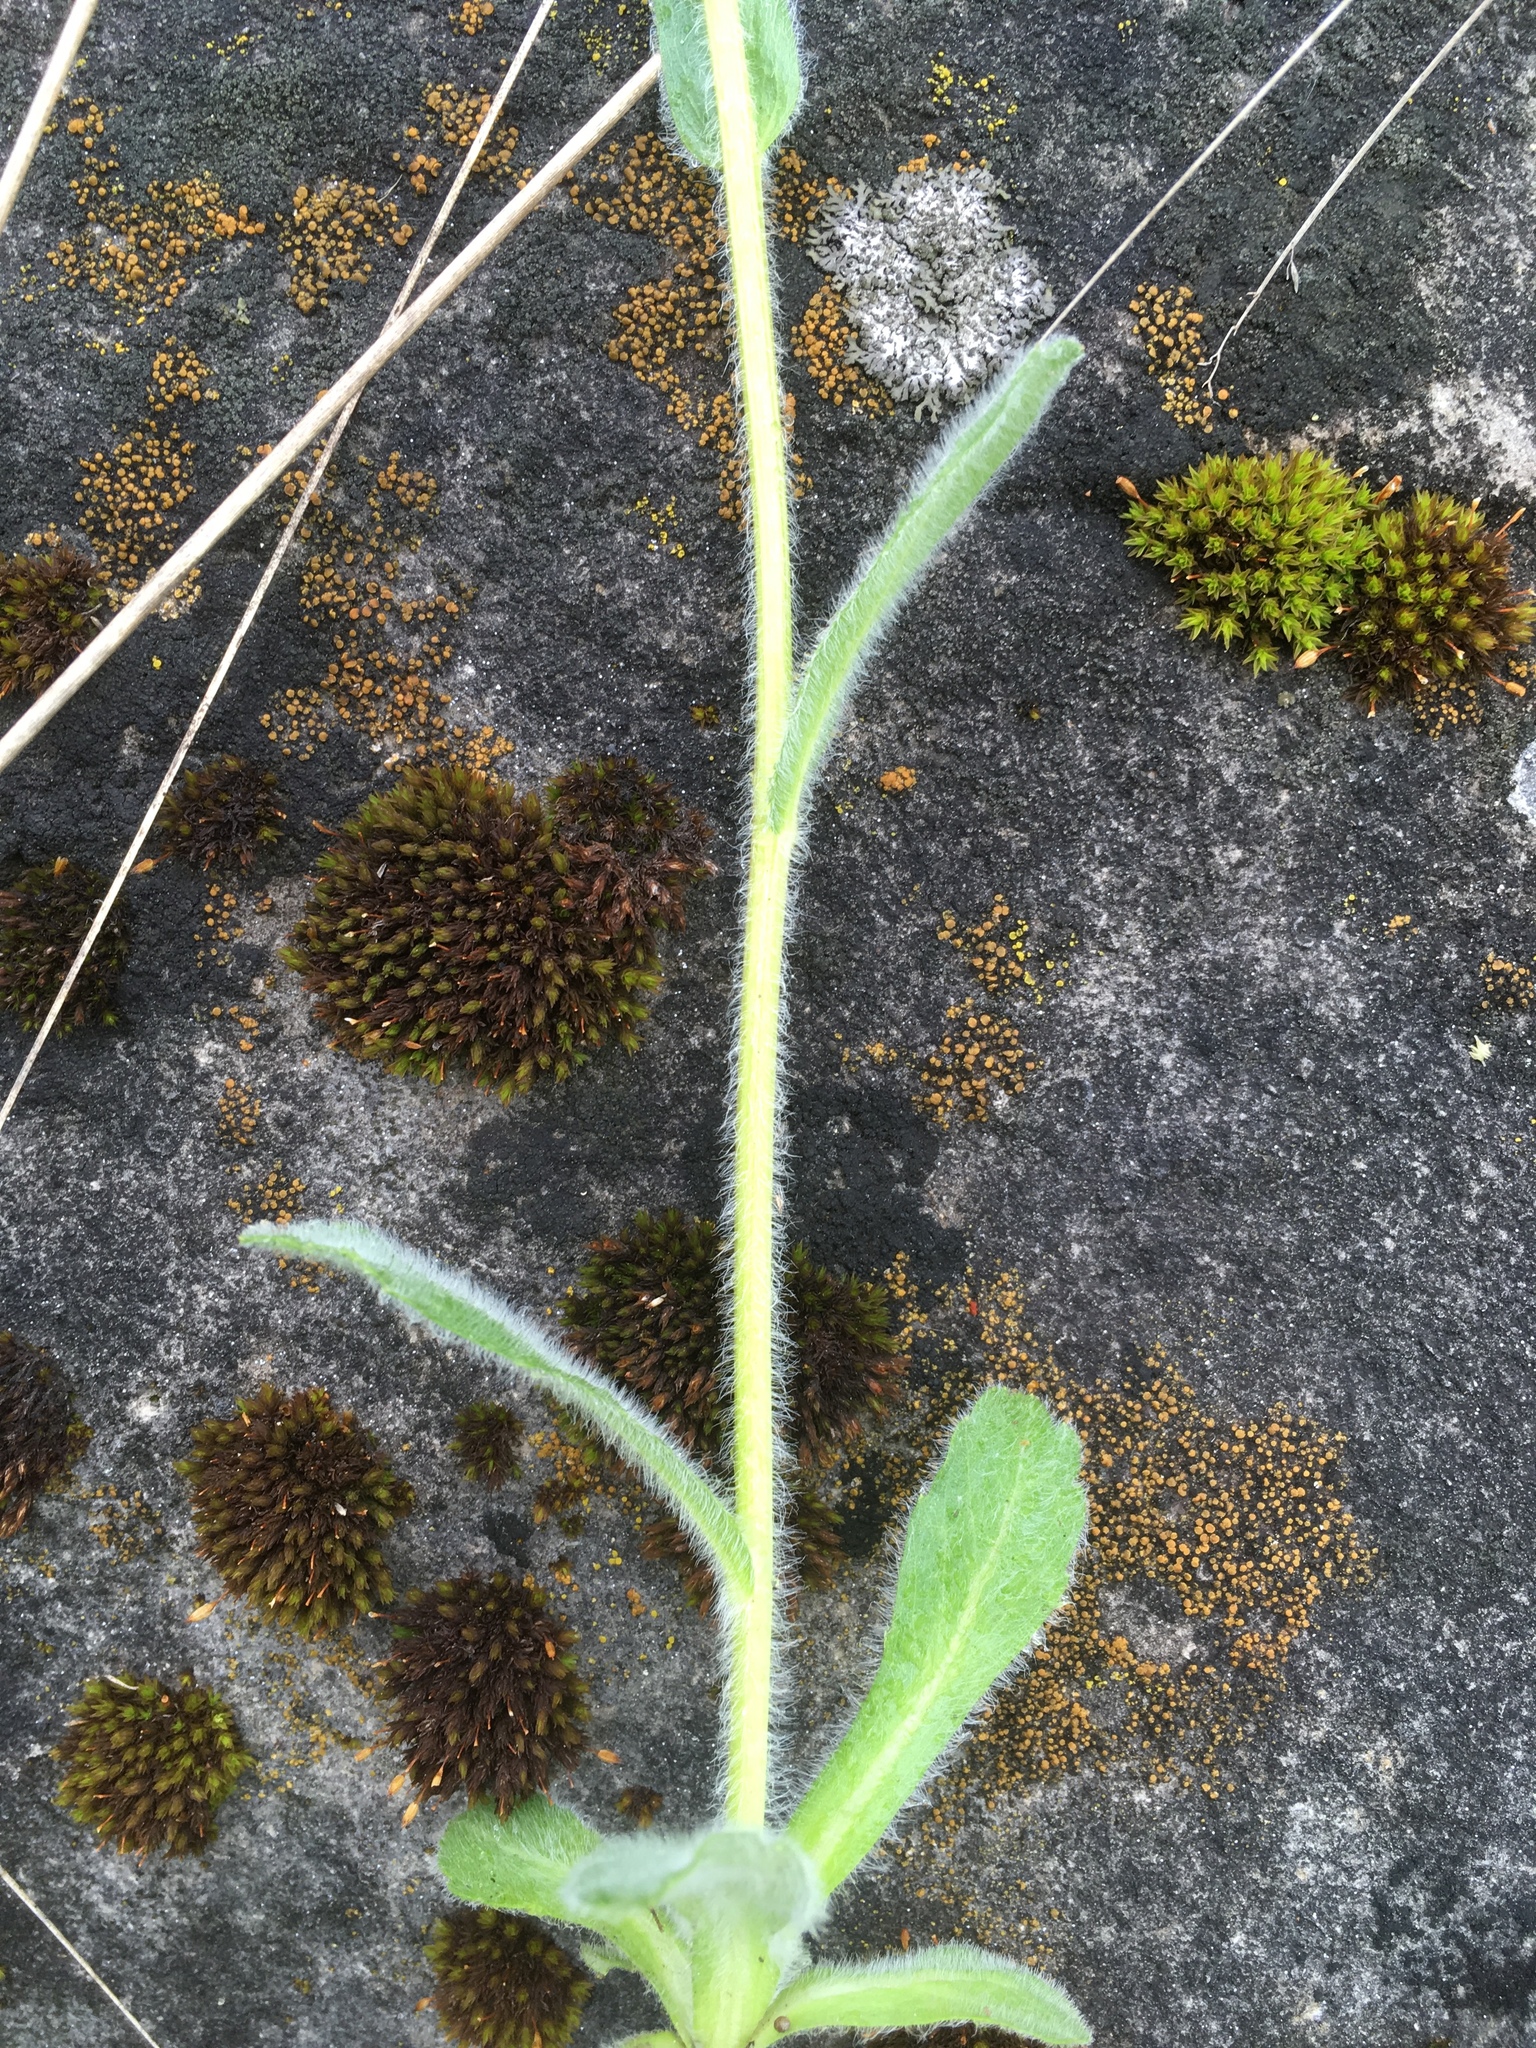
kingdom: Plantae
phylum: Tracheophyta
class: Magnoliopsida
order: Asterales
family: Asteraceae
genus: Erigeron
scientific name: Erigeron pulchellus
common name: Hairy fleabane
